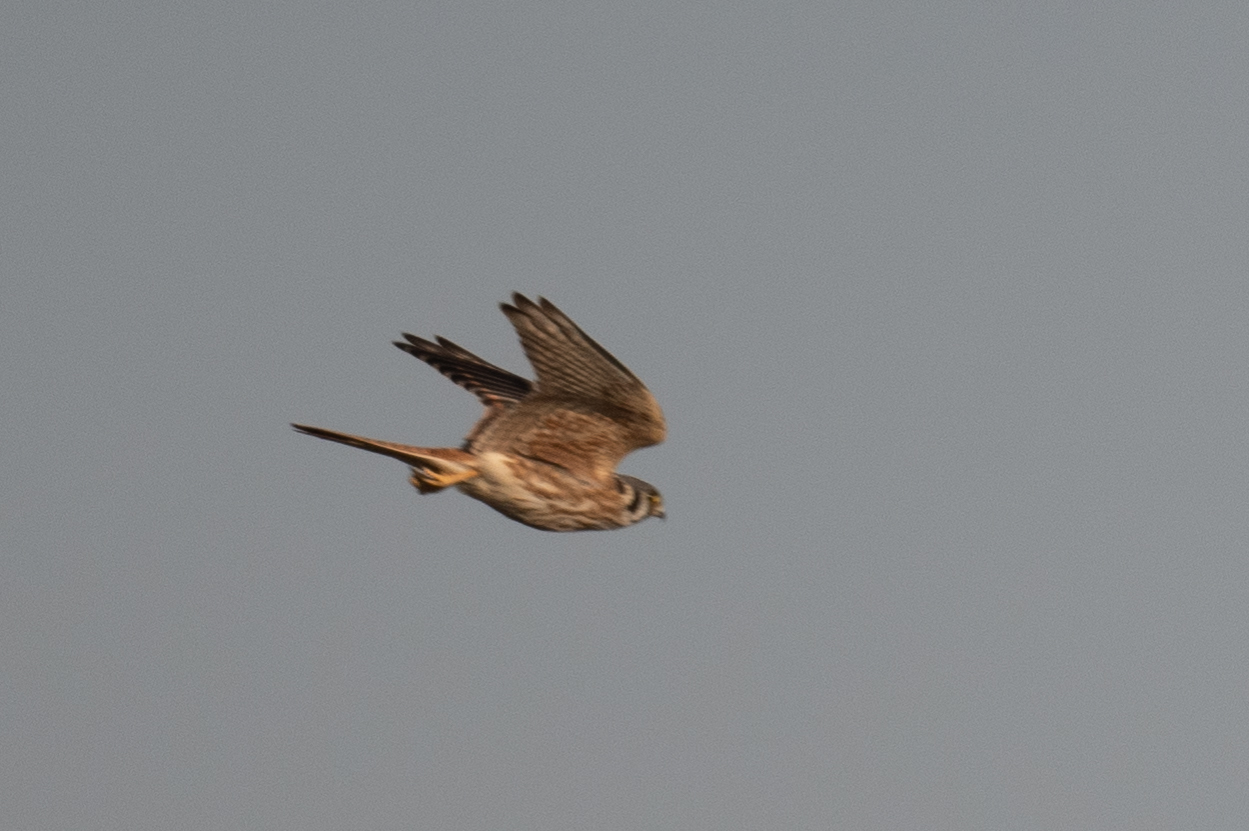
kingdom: Animalia
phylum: Chordata
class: Aves
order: Falconiformes
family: Falconidae
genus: Falco
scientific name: Falco sparverius
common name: American kestrel
